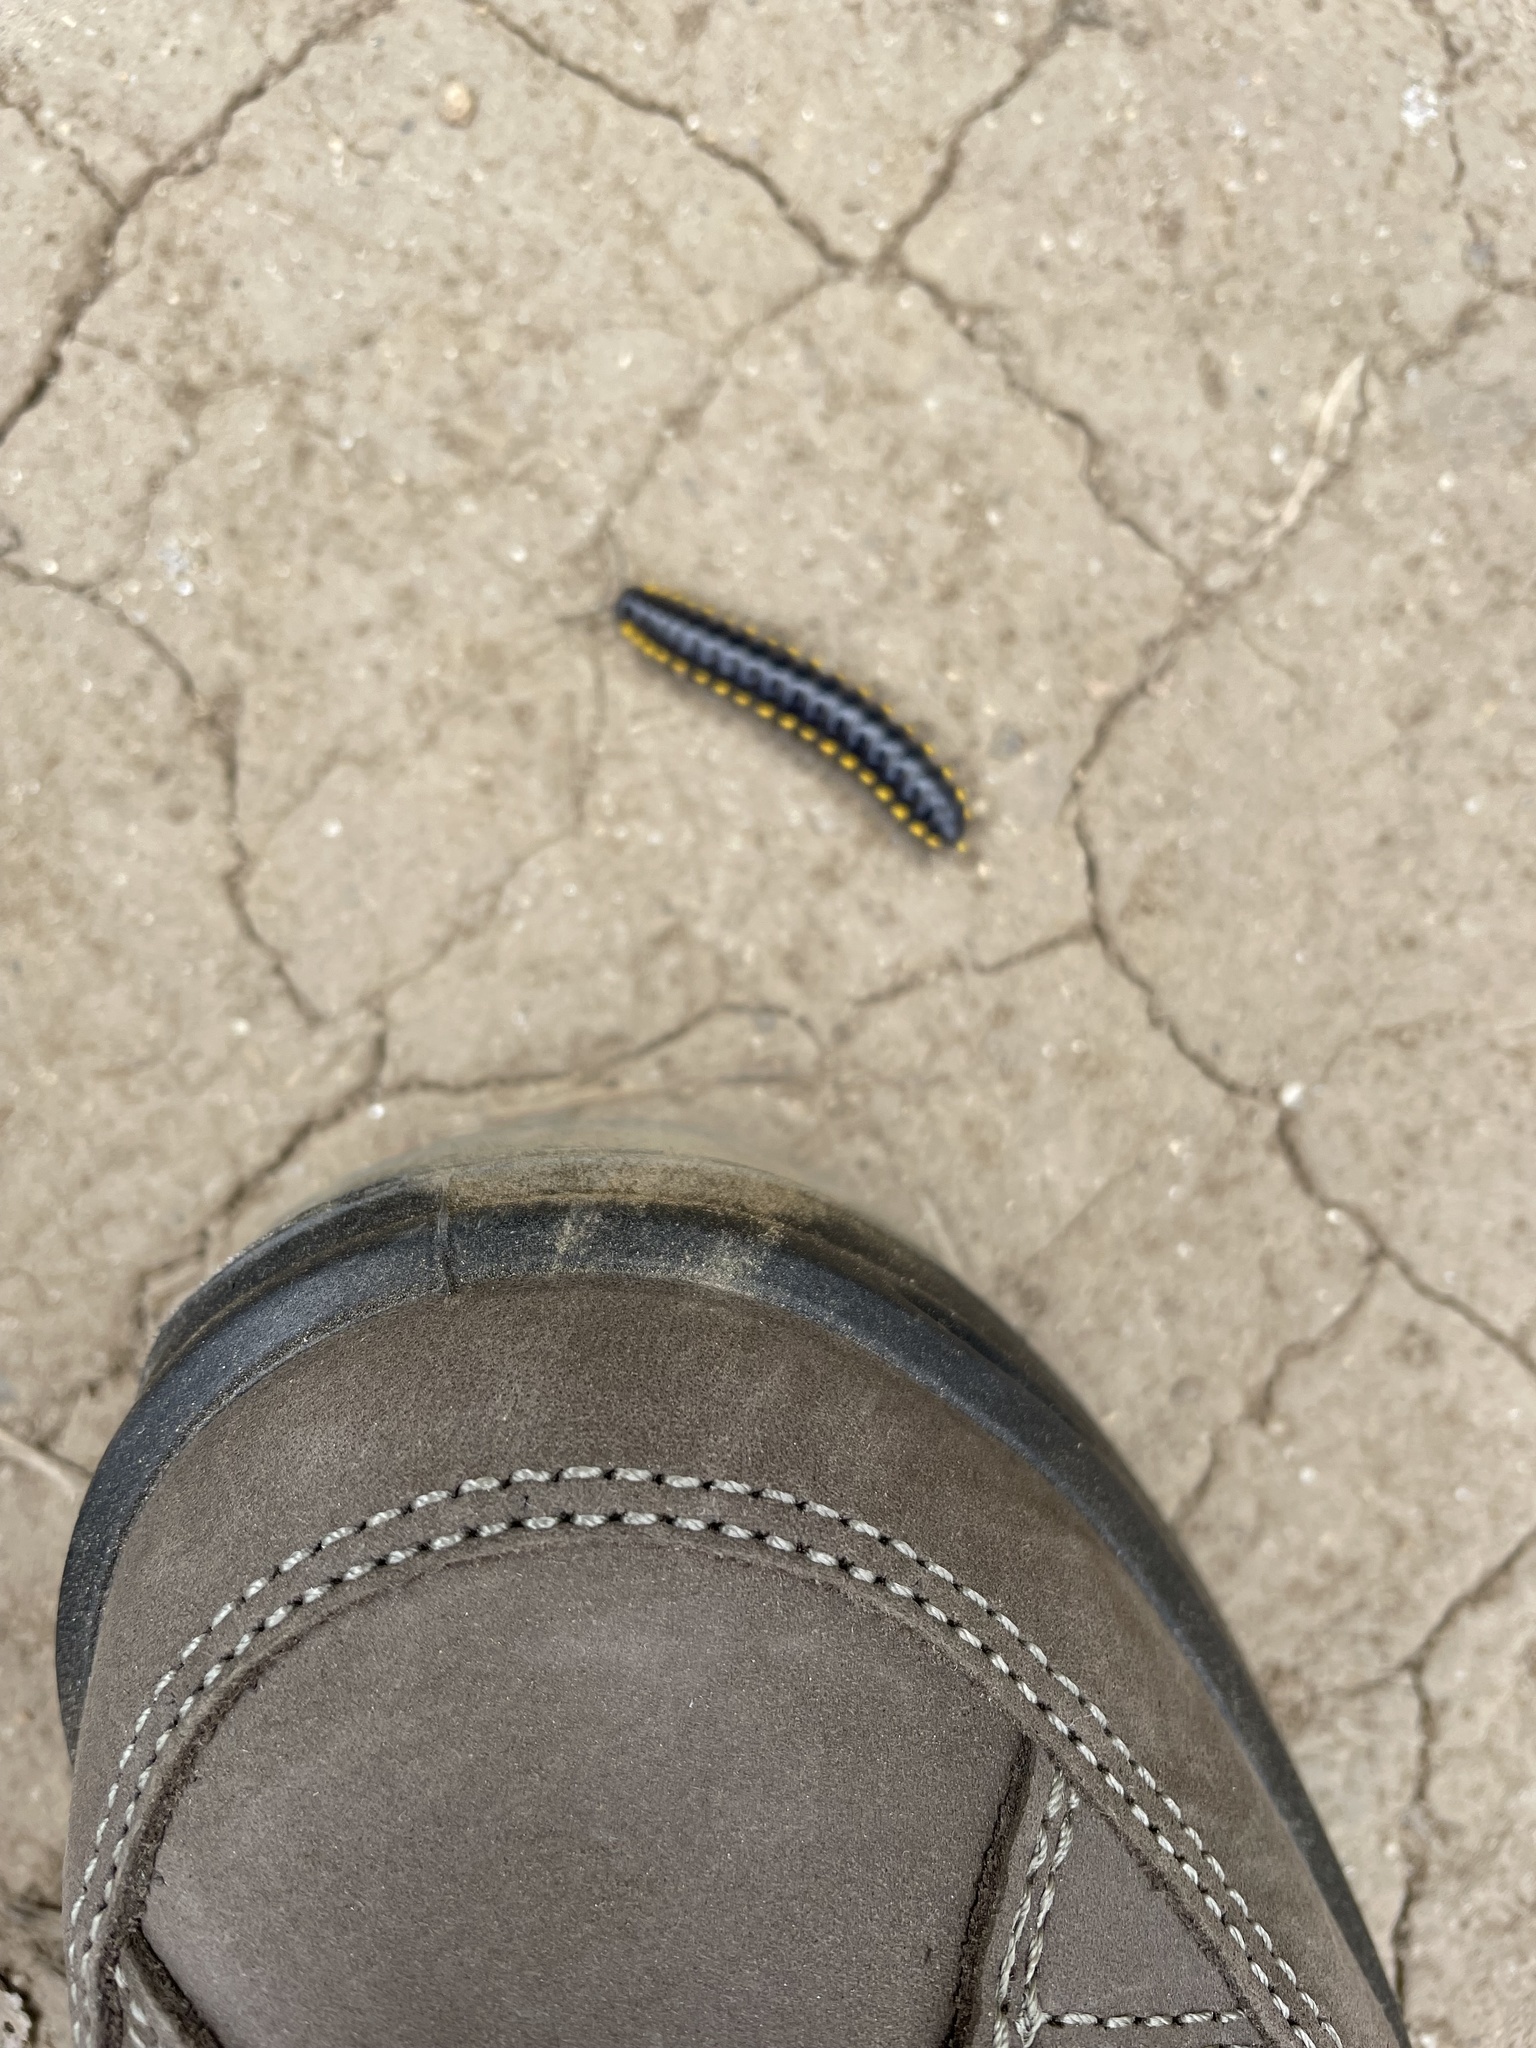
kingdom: Animalia
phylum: Arthropoda
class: Diplopoda
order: Polydesmida
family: Xystodesmidae
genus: Harpaphe
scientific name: Harpaphe haydeniana
